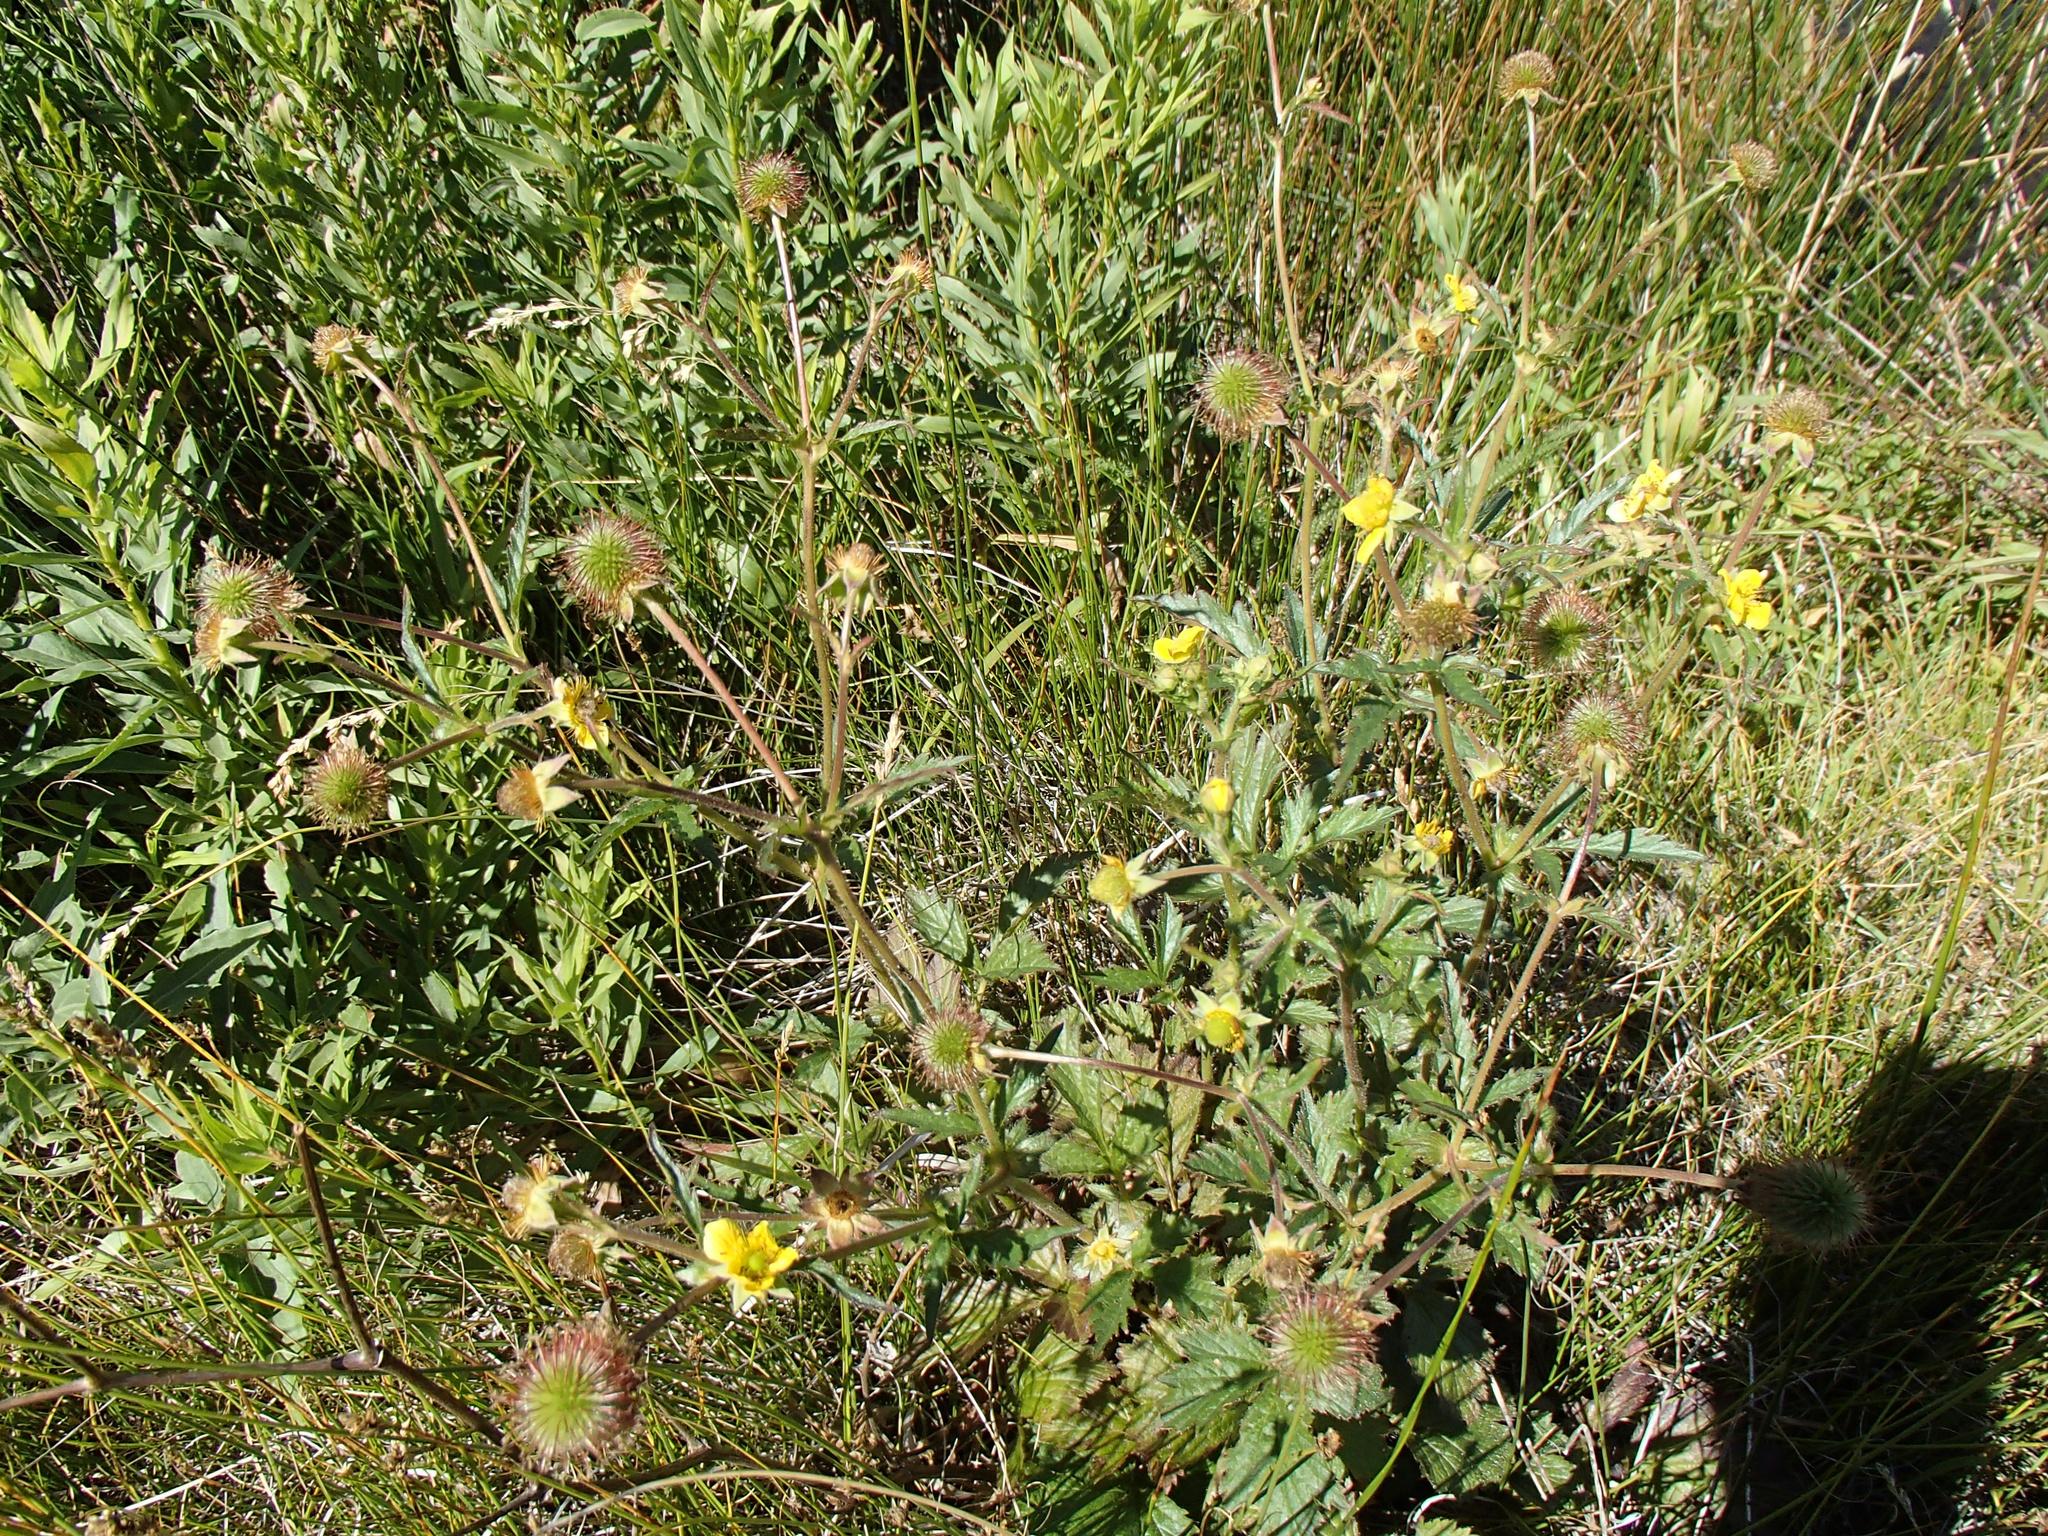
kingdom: Plantae
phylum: Tracheophyta
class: Magnoliopsida
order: Rosales
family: Rosaceae
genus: Geum
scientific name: Geum macrophyllum
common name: Large-leaved avens
